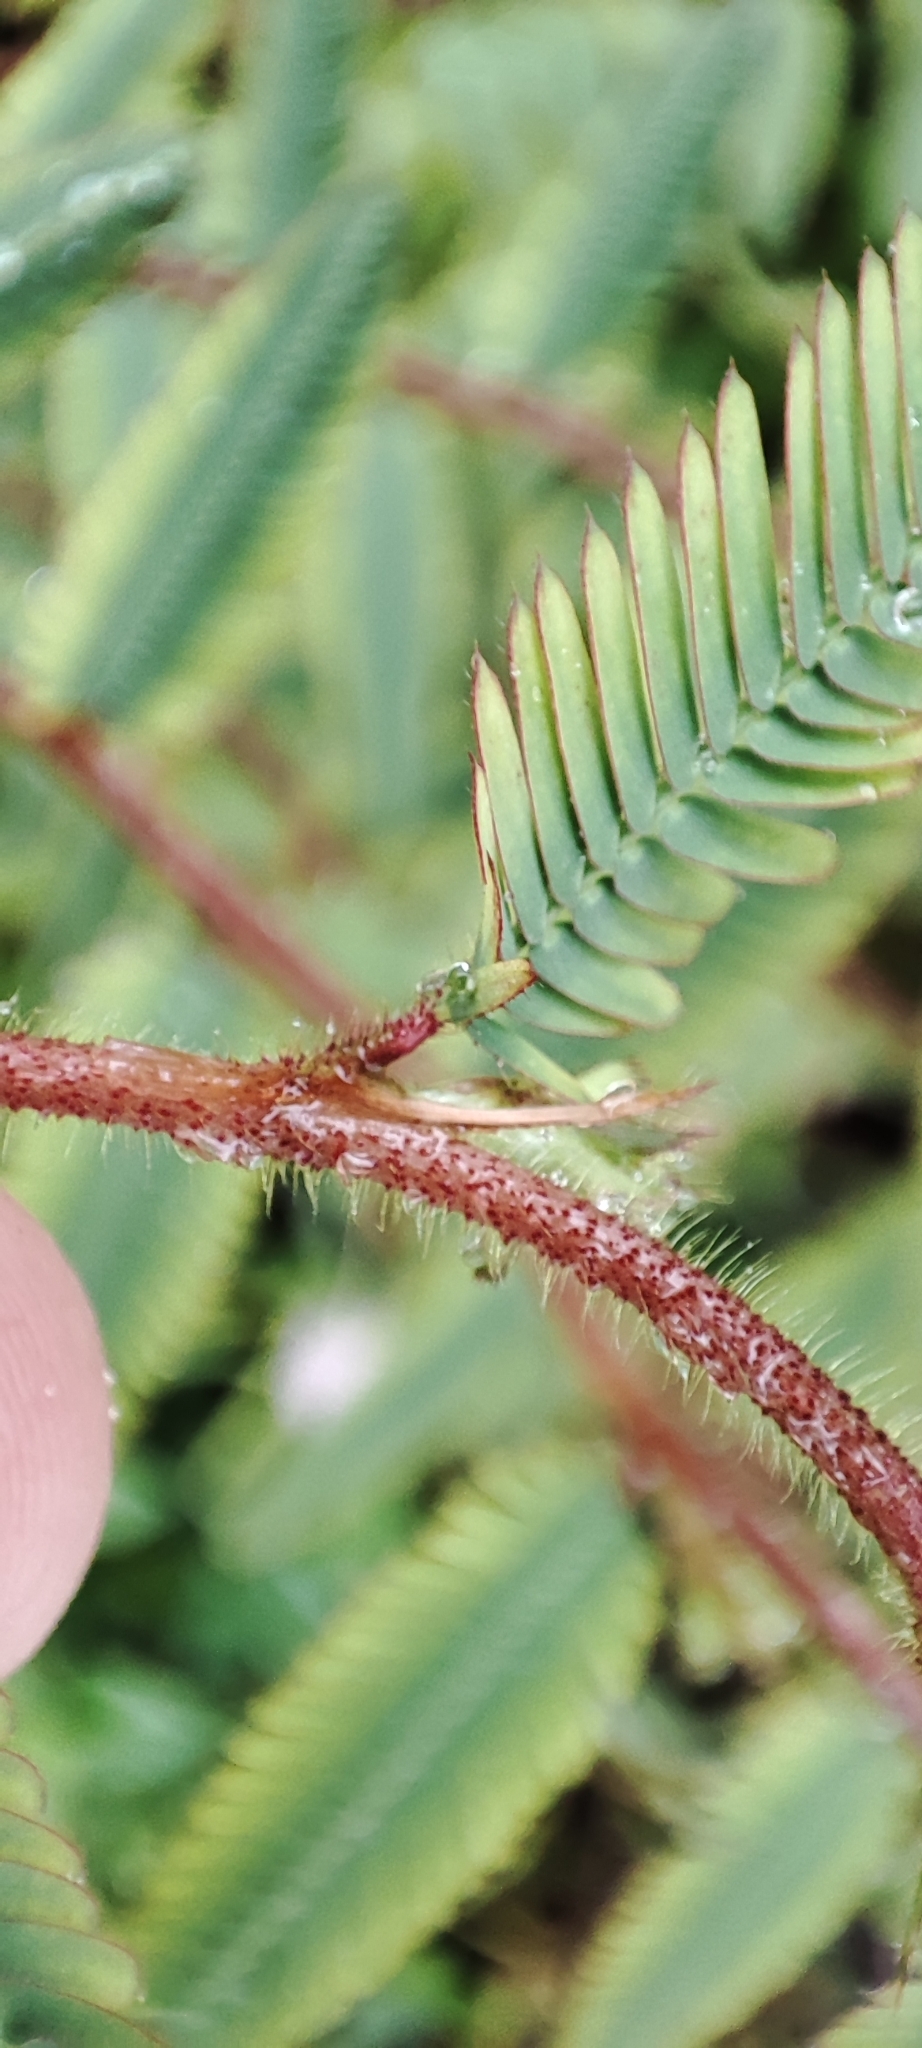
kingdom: Plantae
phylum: Tracheophyta
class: Magnoliopsida
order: Fabales
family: Fabaceae
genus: Aeschynomene
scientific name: Aeschynomene americana
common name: Joint-vetch
